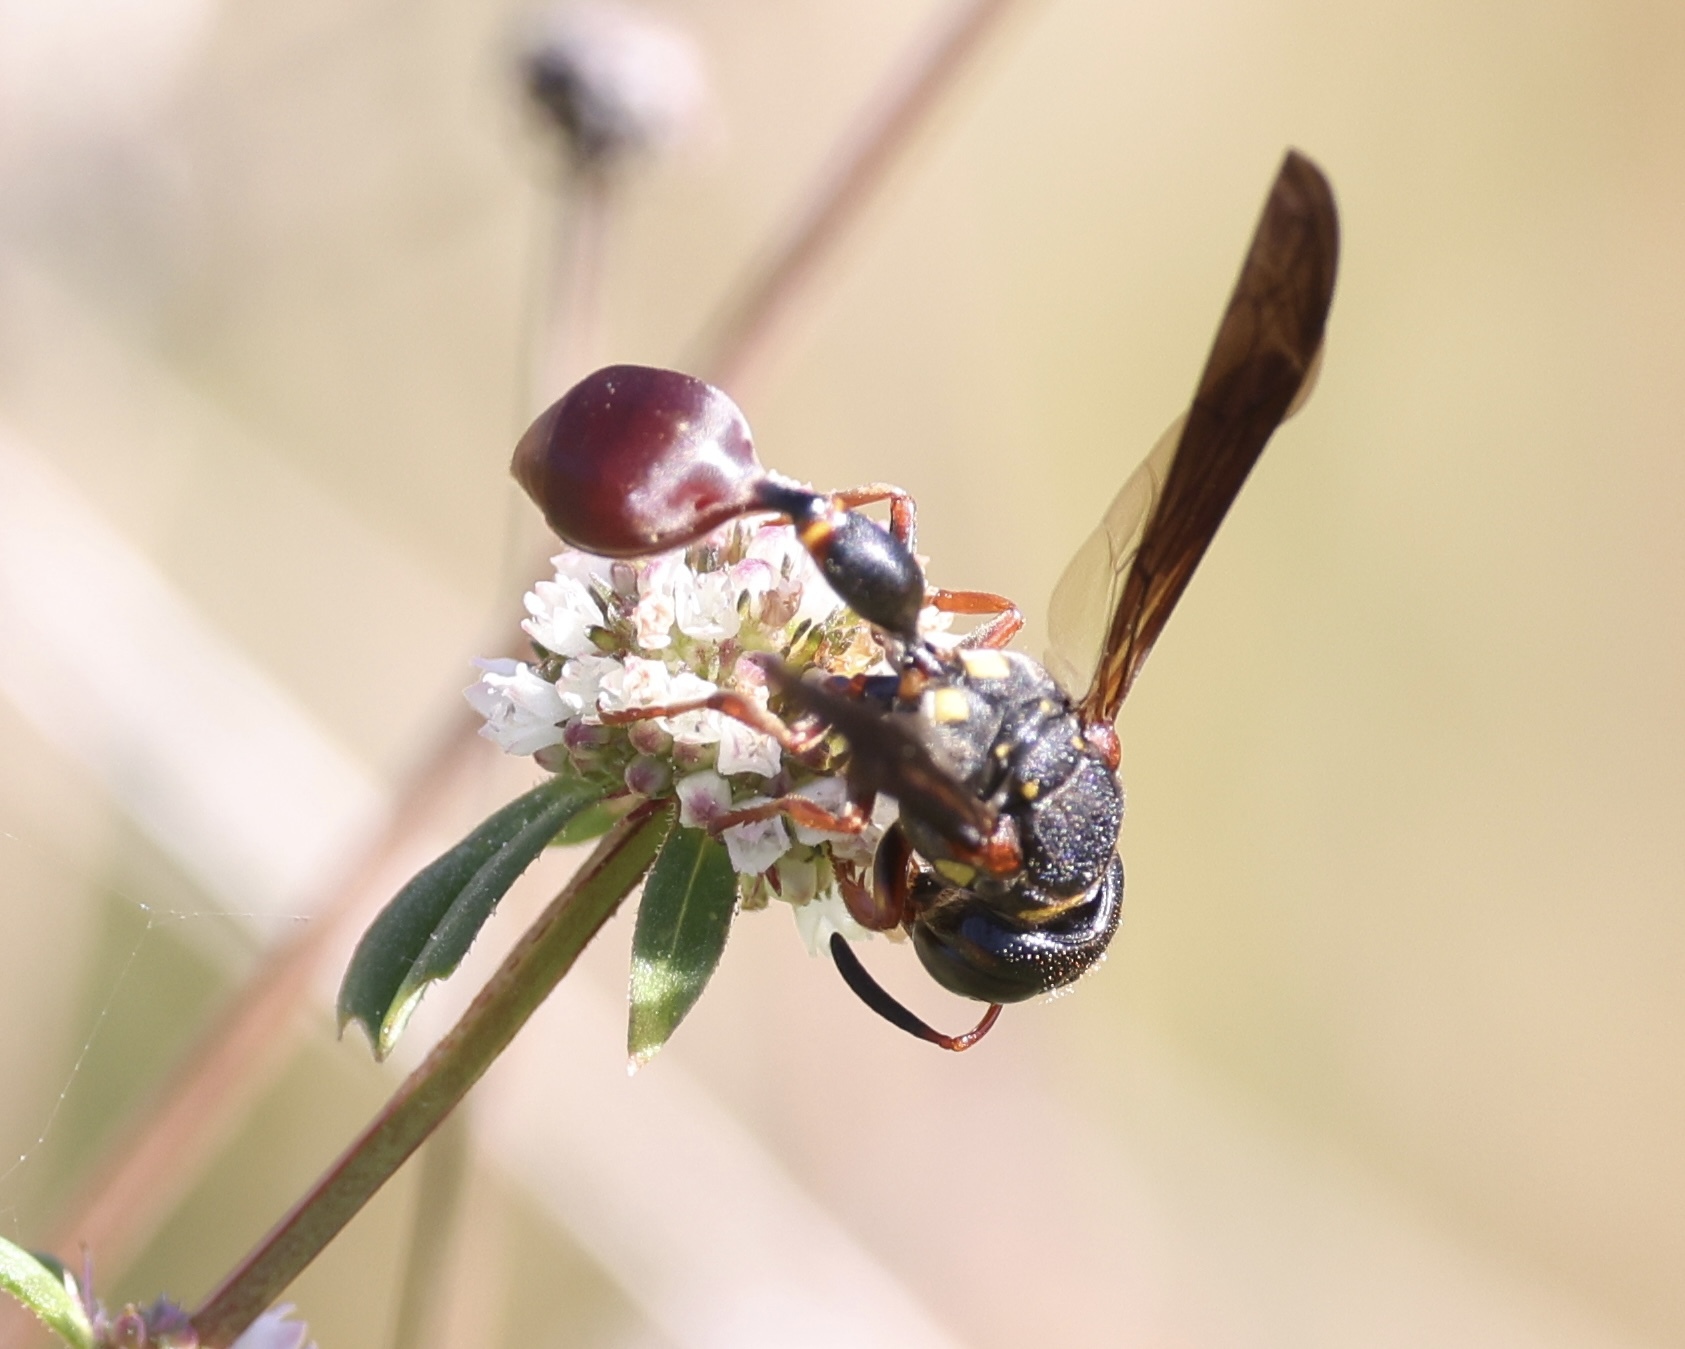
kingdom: Animalia
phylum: Arthropoda
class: Insecta
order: Hymenoptera
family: Eumenidae
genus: Zethus
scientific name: Zethus slossonae
